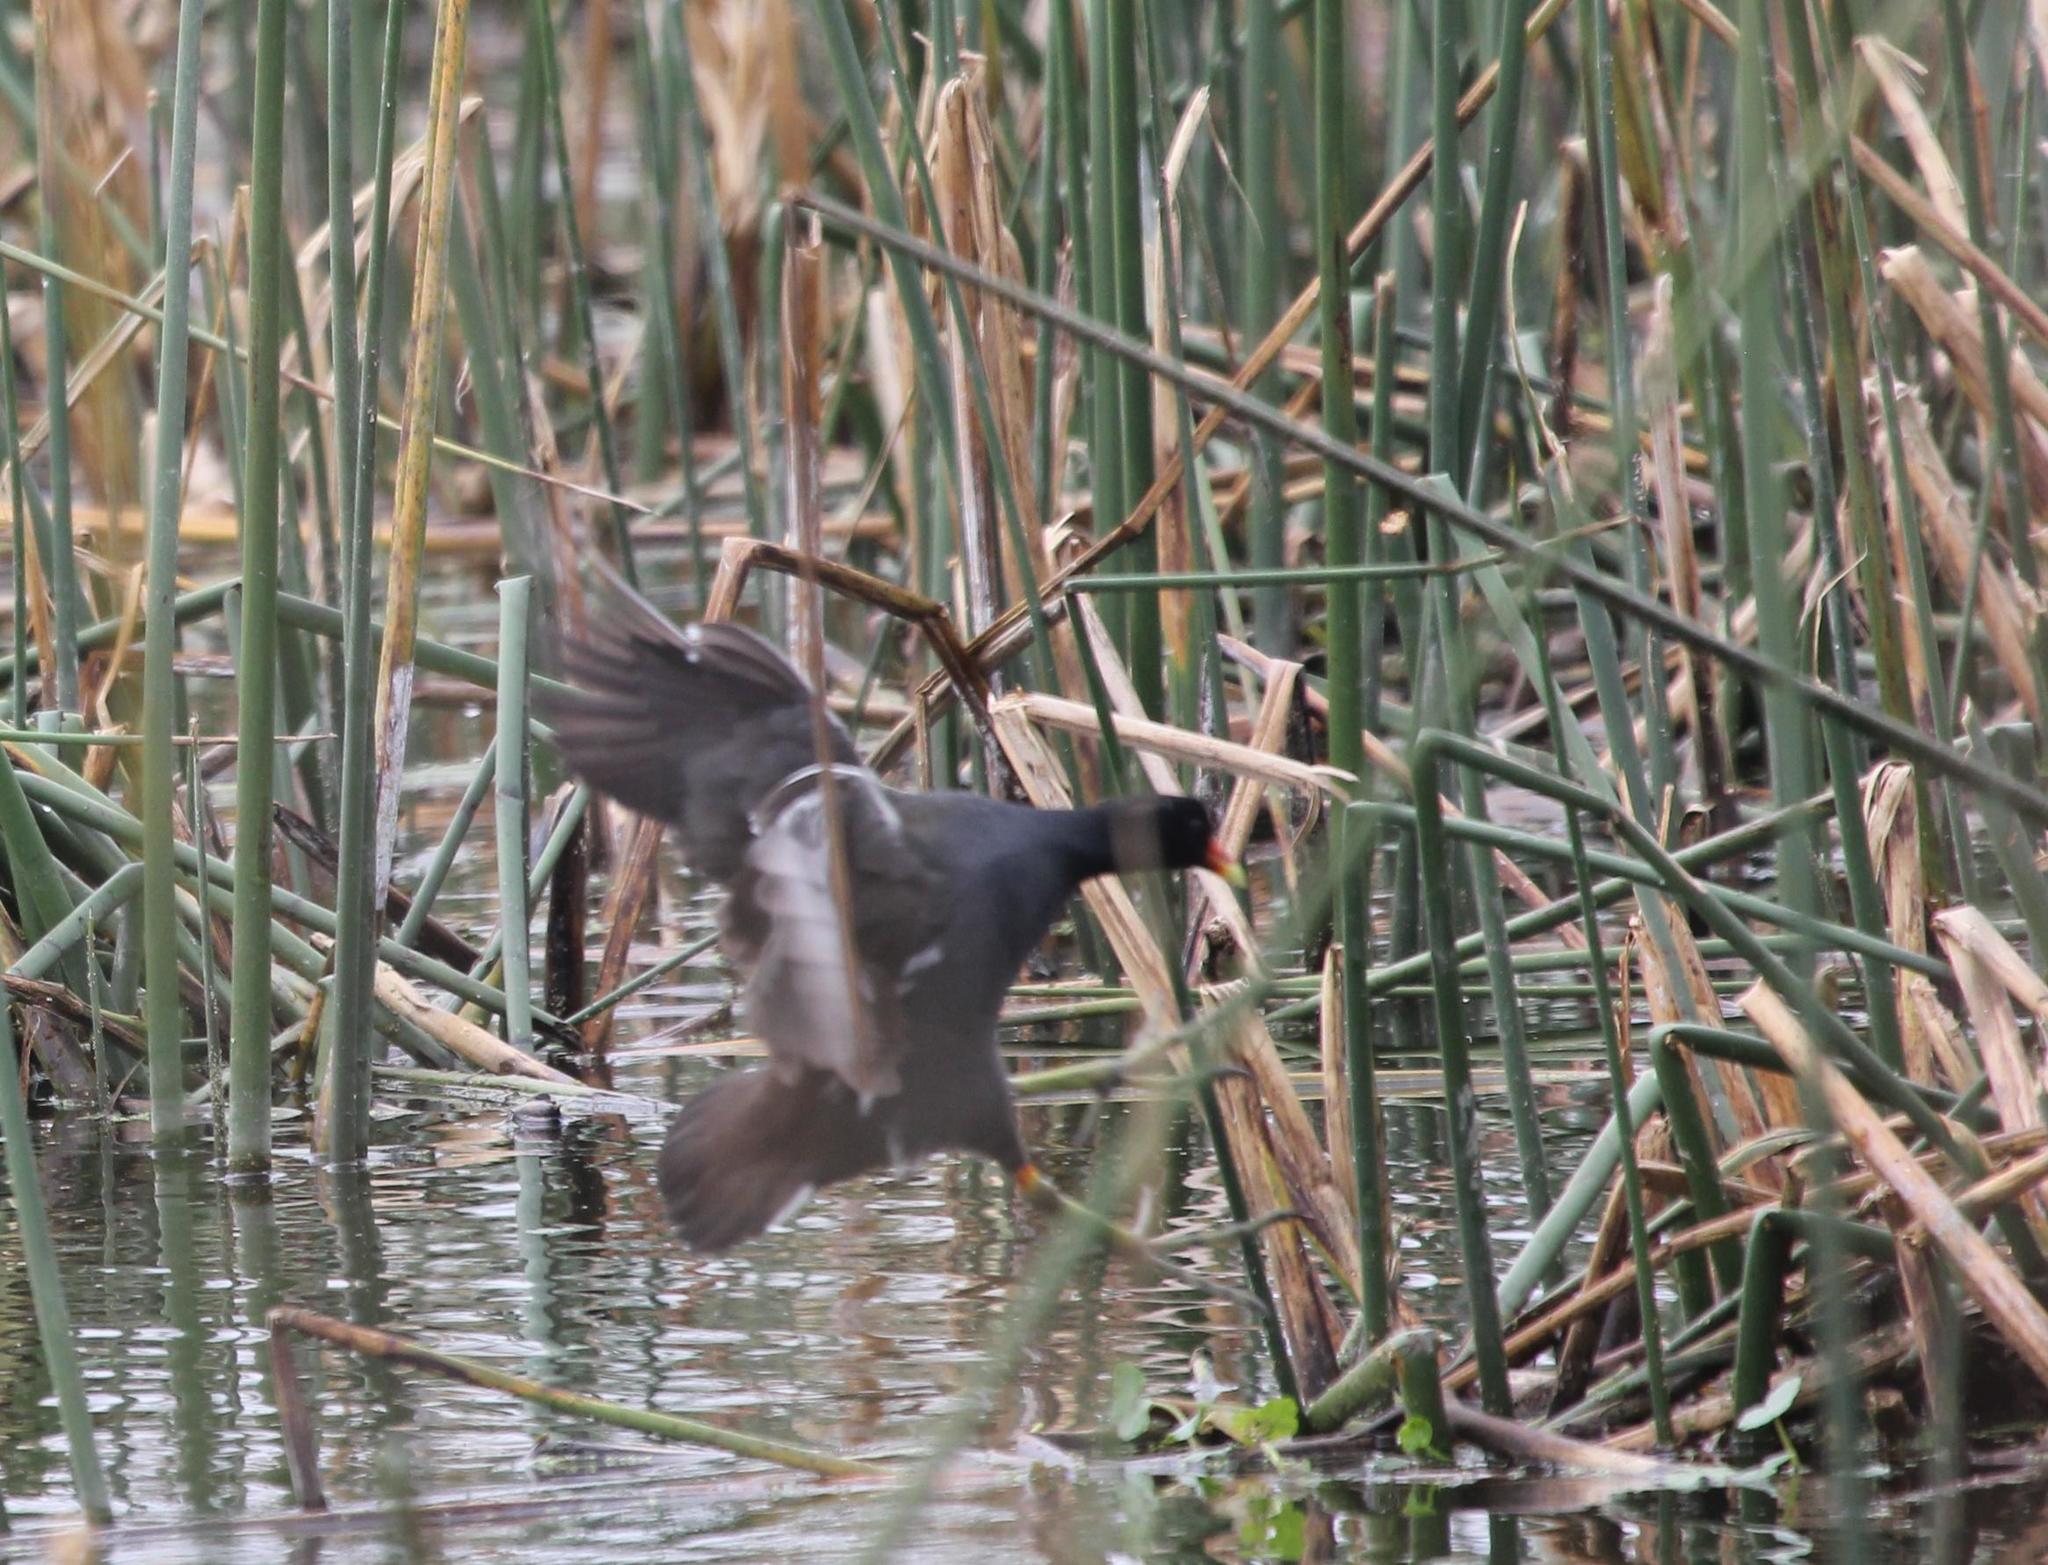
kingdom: Animalia
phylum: Chordata
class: Aves
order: Gruiformes
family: Rallidae
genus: Gallinula
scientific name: Gallinula chloropus
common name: Common moorhen
